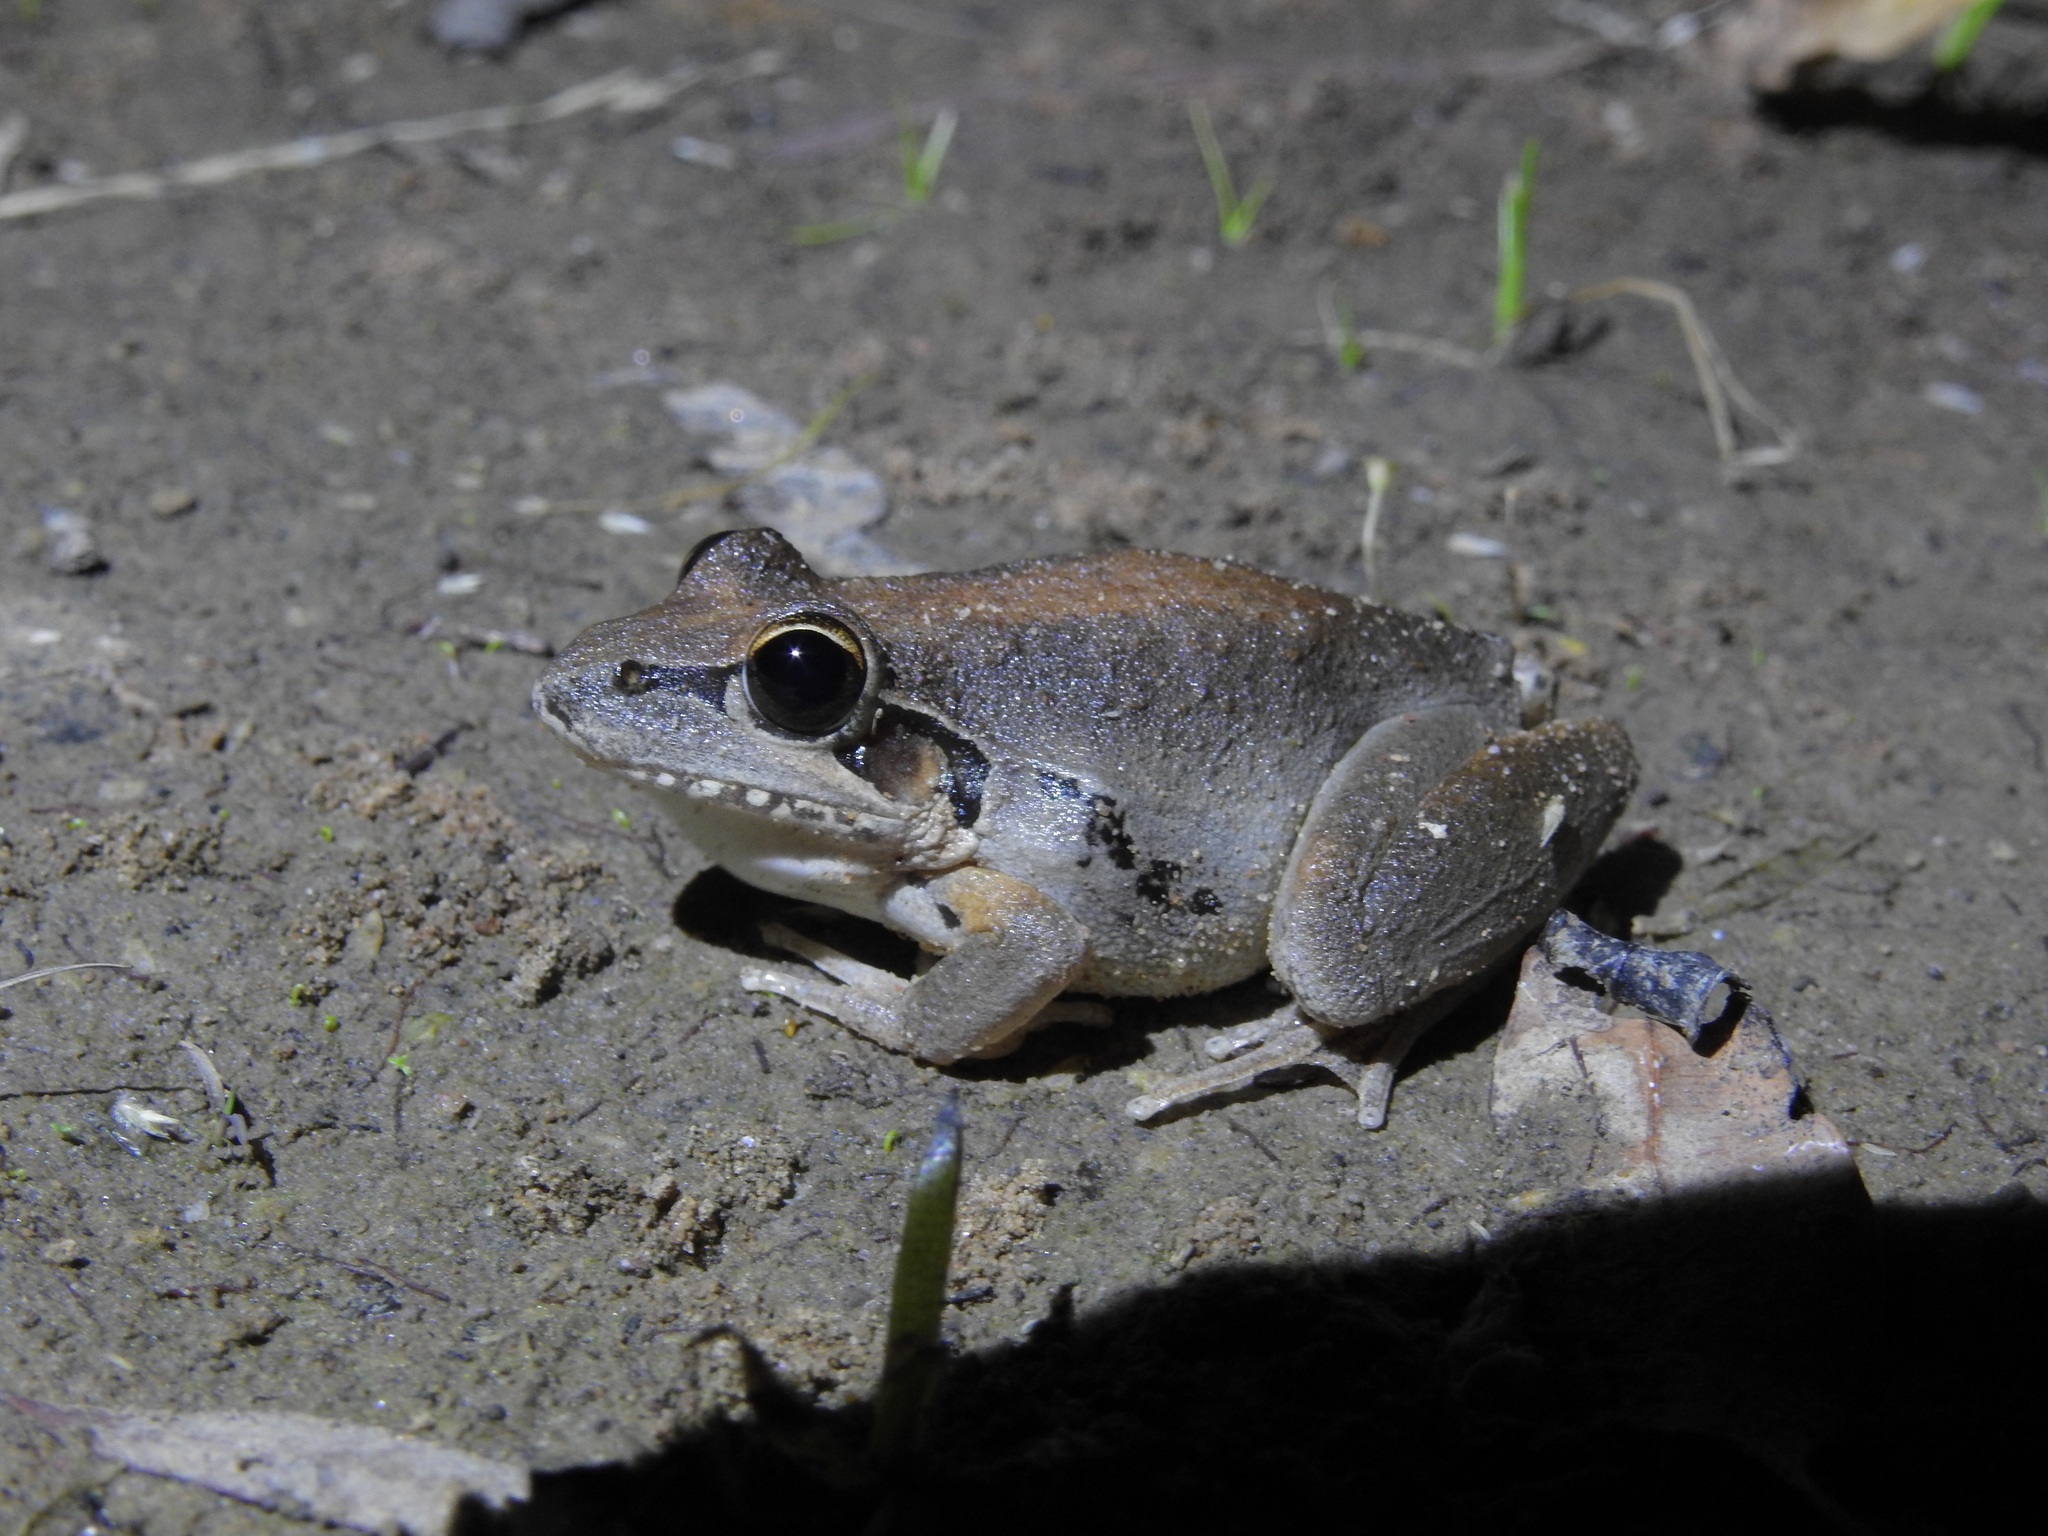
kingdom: Animalia
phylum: Chordata
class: Amphibia
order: Anura
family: Pelodryadidae
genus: Litoria
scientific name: Litoria latopalmata
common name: Broad-palmed rocket frog
